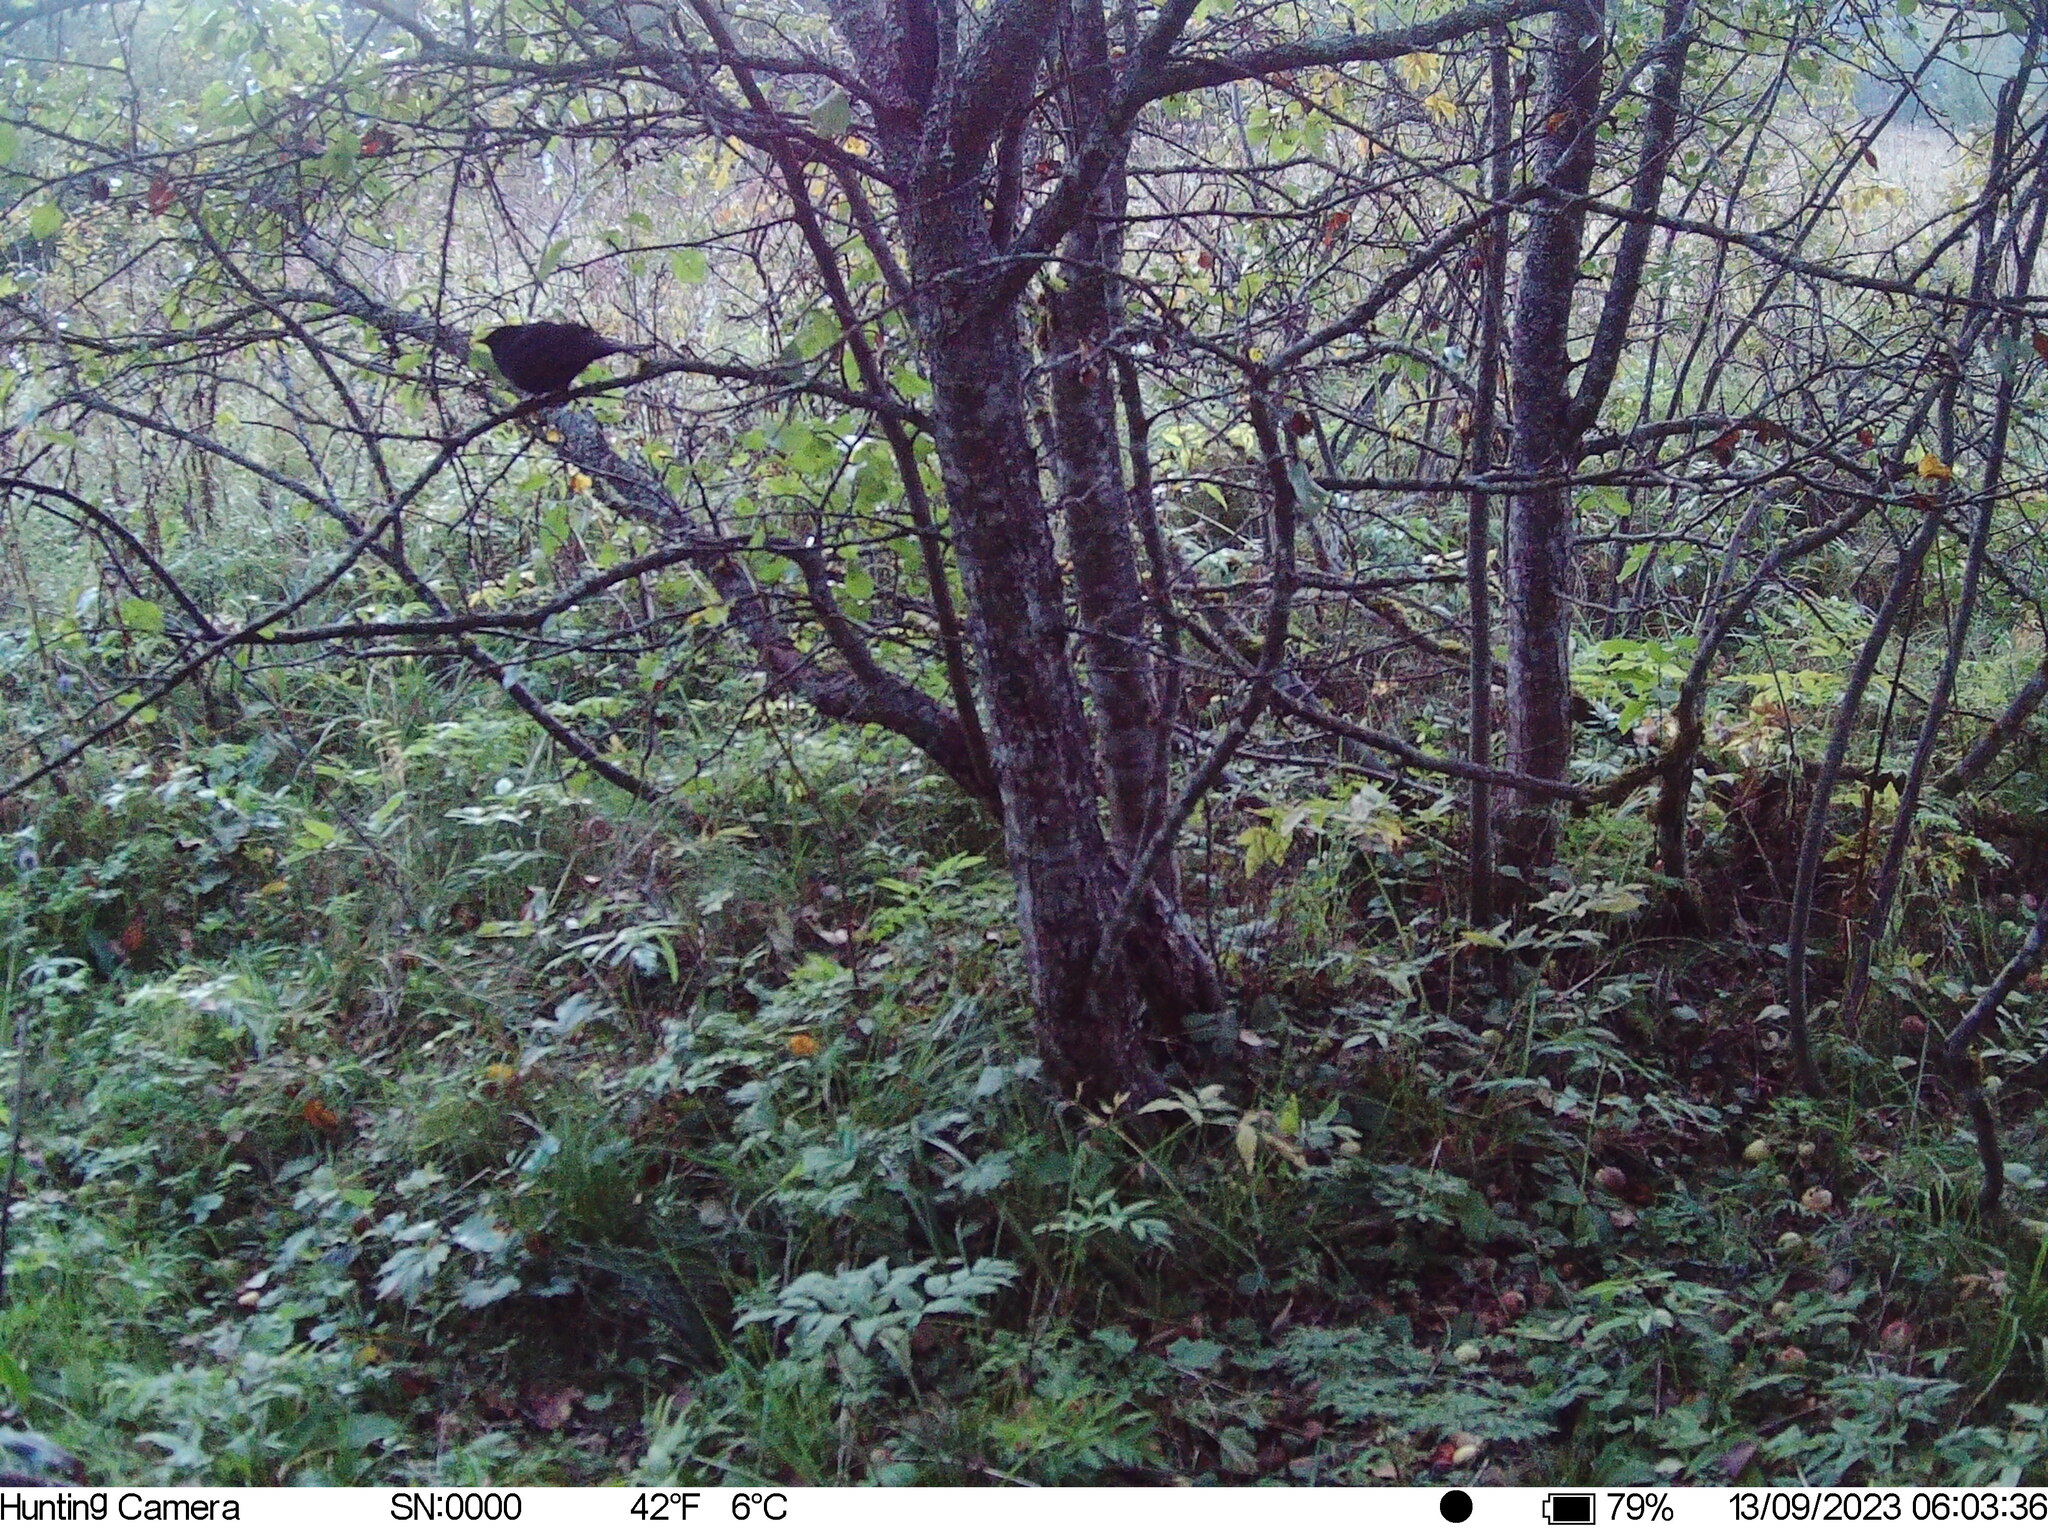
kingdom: Animalia
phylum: Chordata
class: Aves
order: Passeriformes
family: Turdidae
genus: Turdus
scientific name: Turdus merula
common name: Common blackbird
